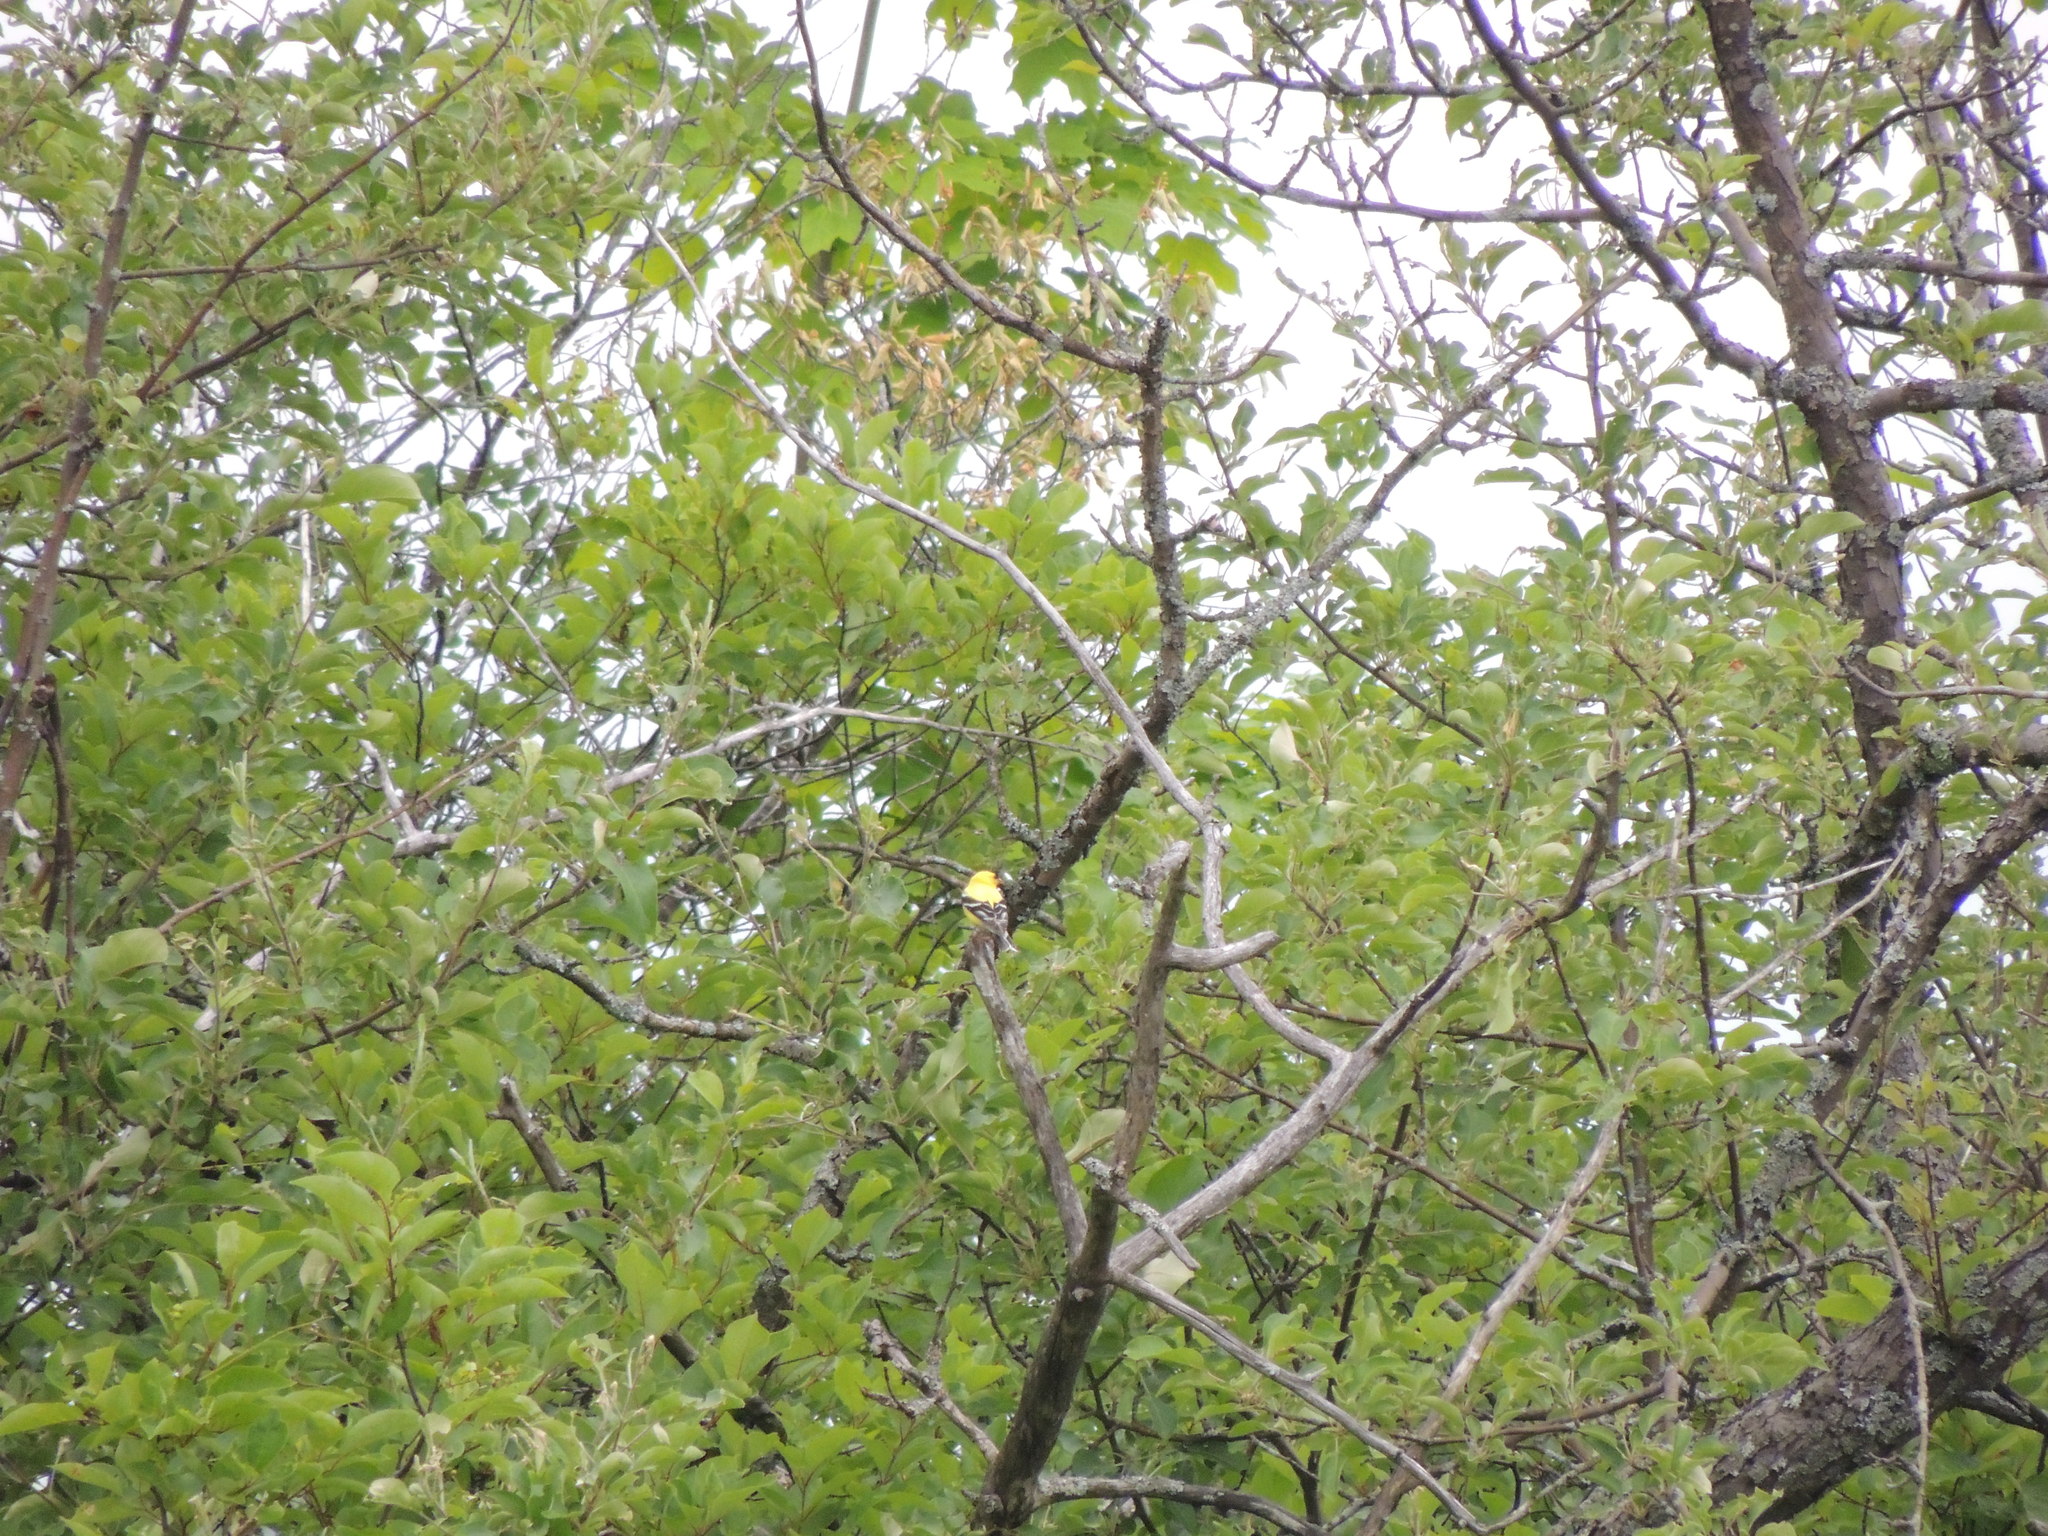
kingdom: Animalia
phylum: Chordata
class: Aves
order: Passeriformes
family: Fringillidae
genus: Spinus
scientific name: Spinus tristis
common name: American goldfinch
